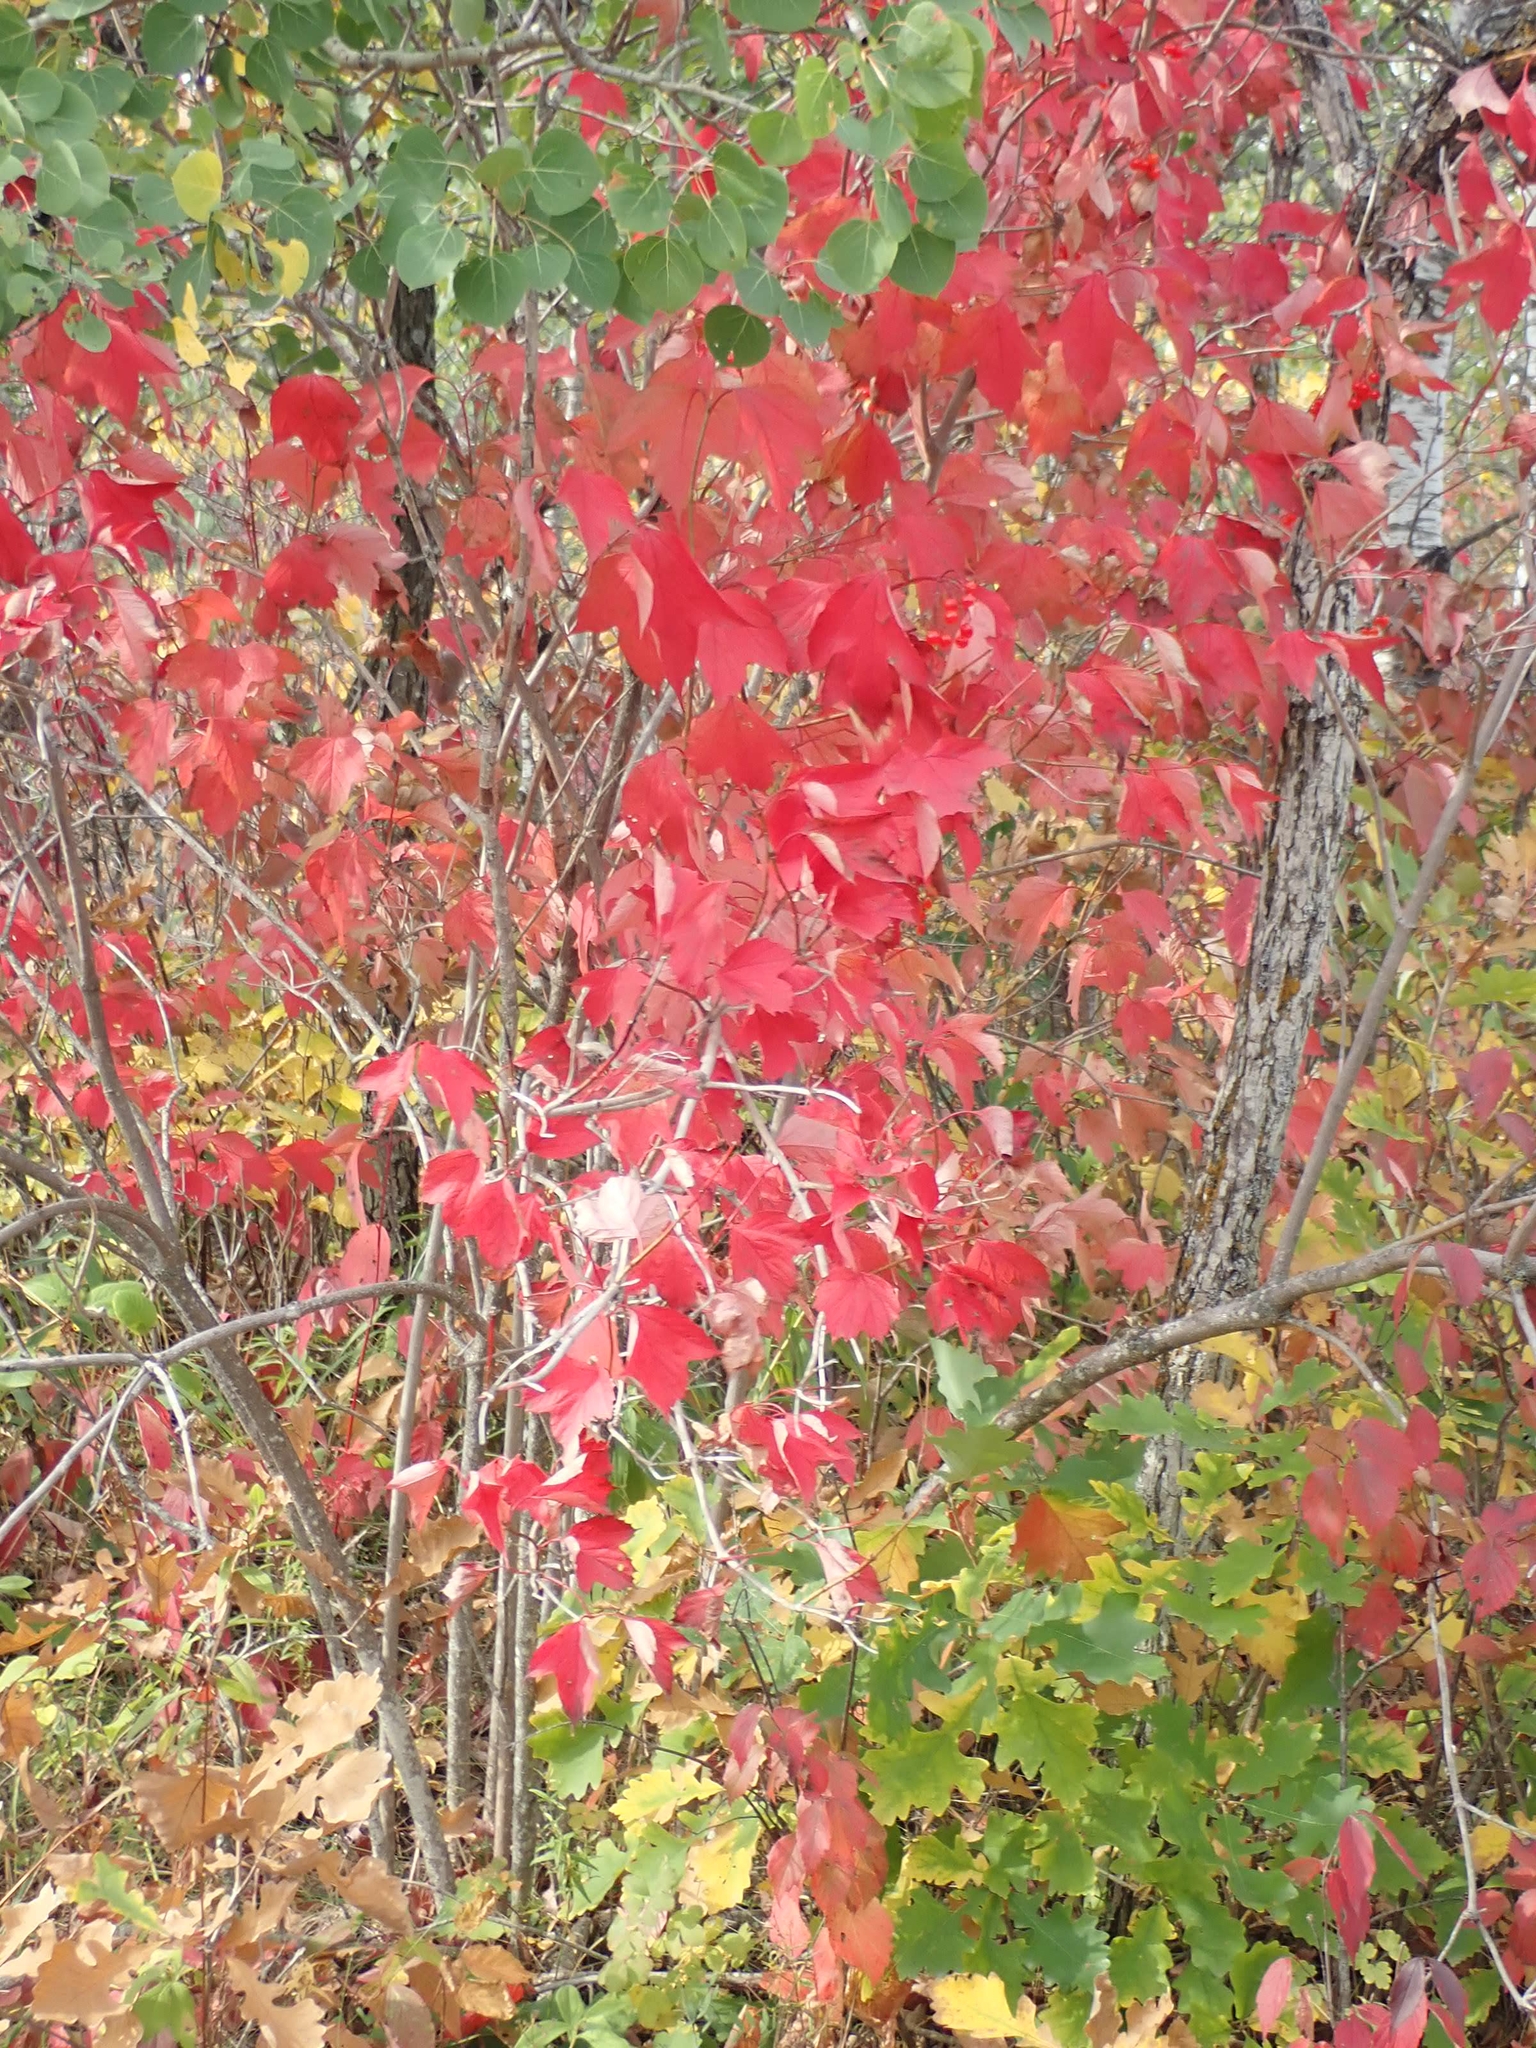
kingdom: Plantae
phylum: Tracheophyta
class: Magnoliopsida
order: Dipsacales
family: Viburnaceae
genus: Viburnum
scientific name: Viburnum trilobum
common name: American cranberrybush
